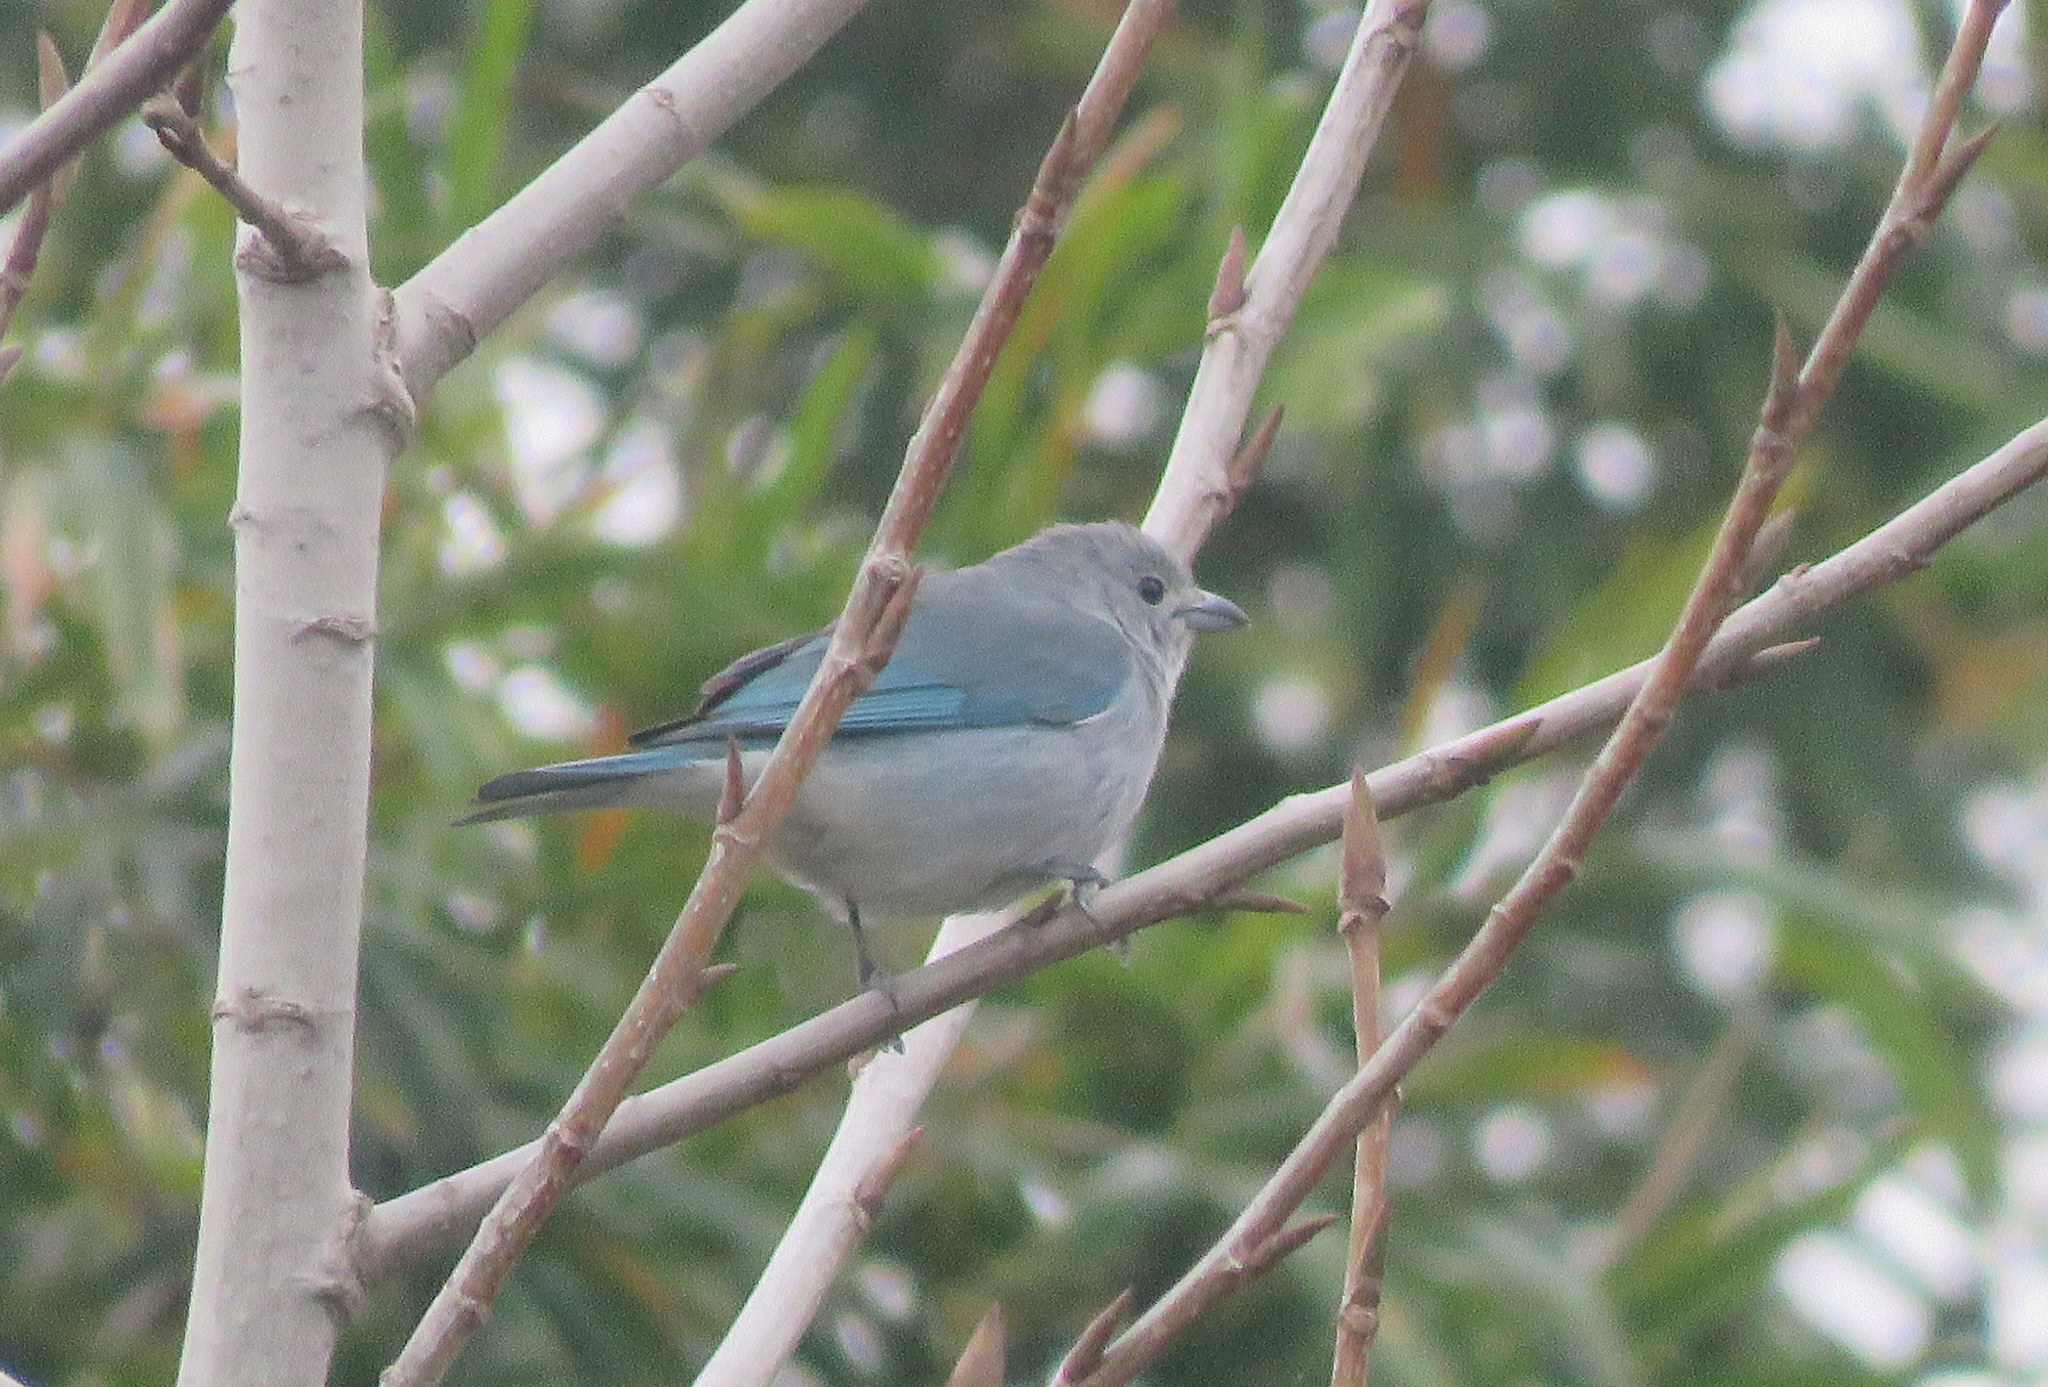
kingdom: Animalia
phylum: Chordata
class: Aves
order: Passeriformes
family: Thraupidae
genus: Thraupis
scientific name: Thraupis sayaca
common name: Sayaca tanager
